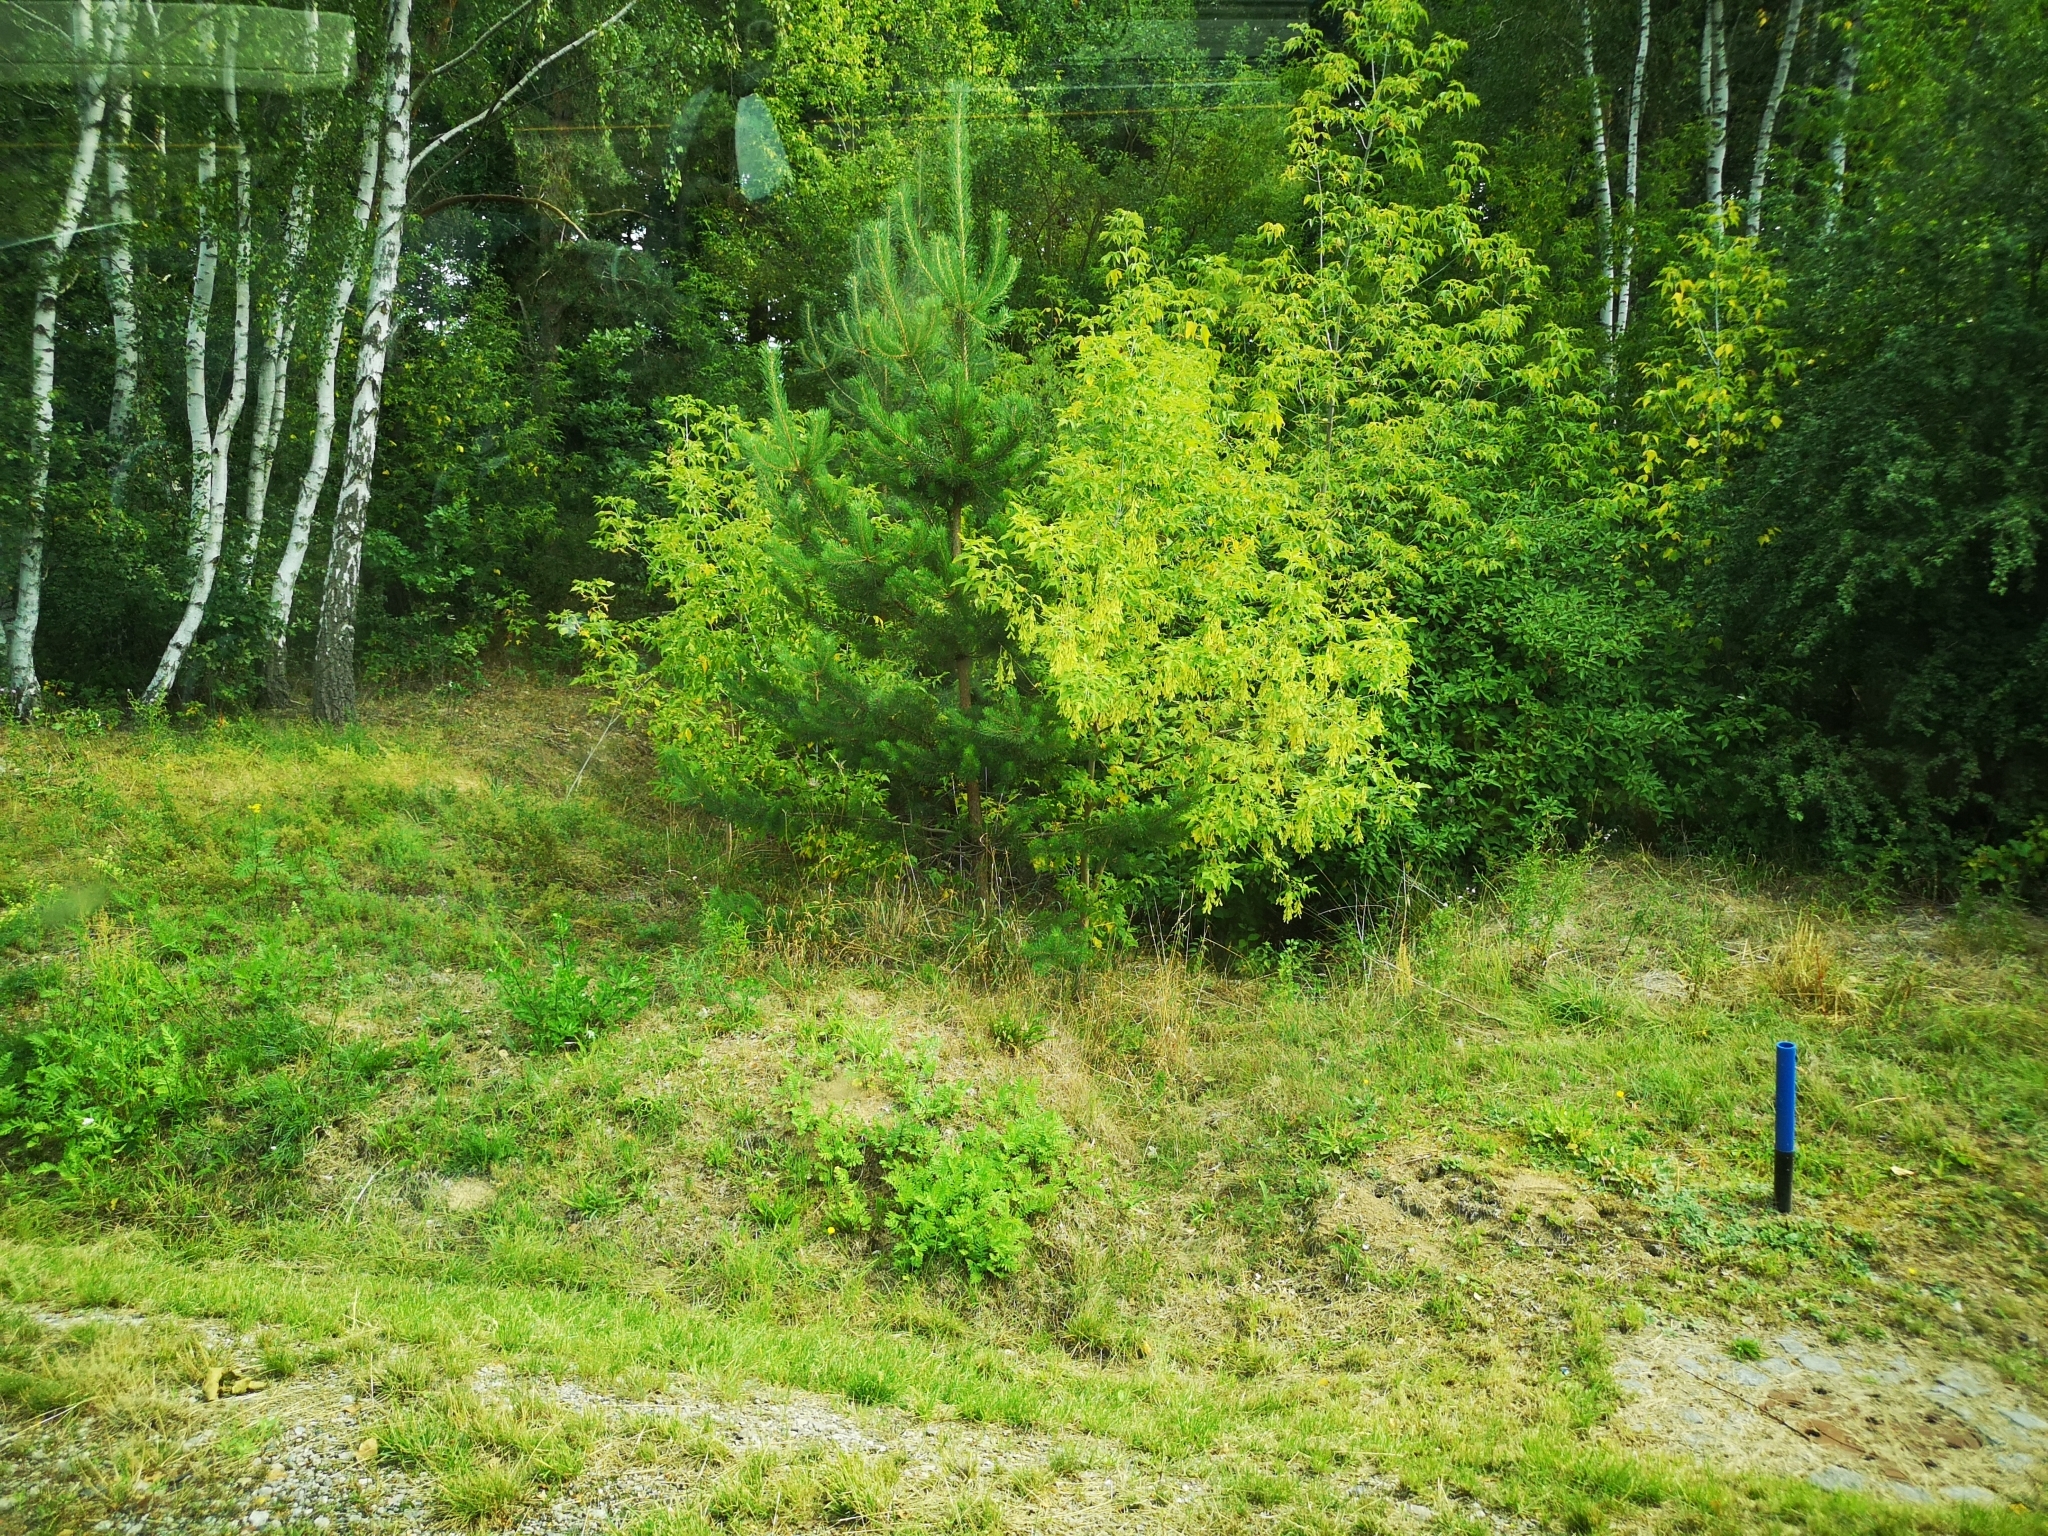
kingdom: Plantae
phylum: Tracheophyta
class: Magnoliopsida
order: Sapindales
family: Sapindaceae
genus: Acer
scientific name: Acer negundo
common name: Ashleaf maple
